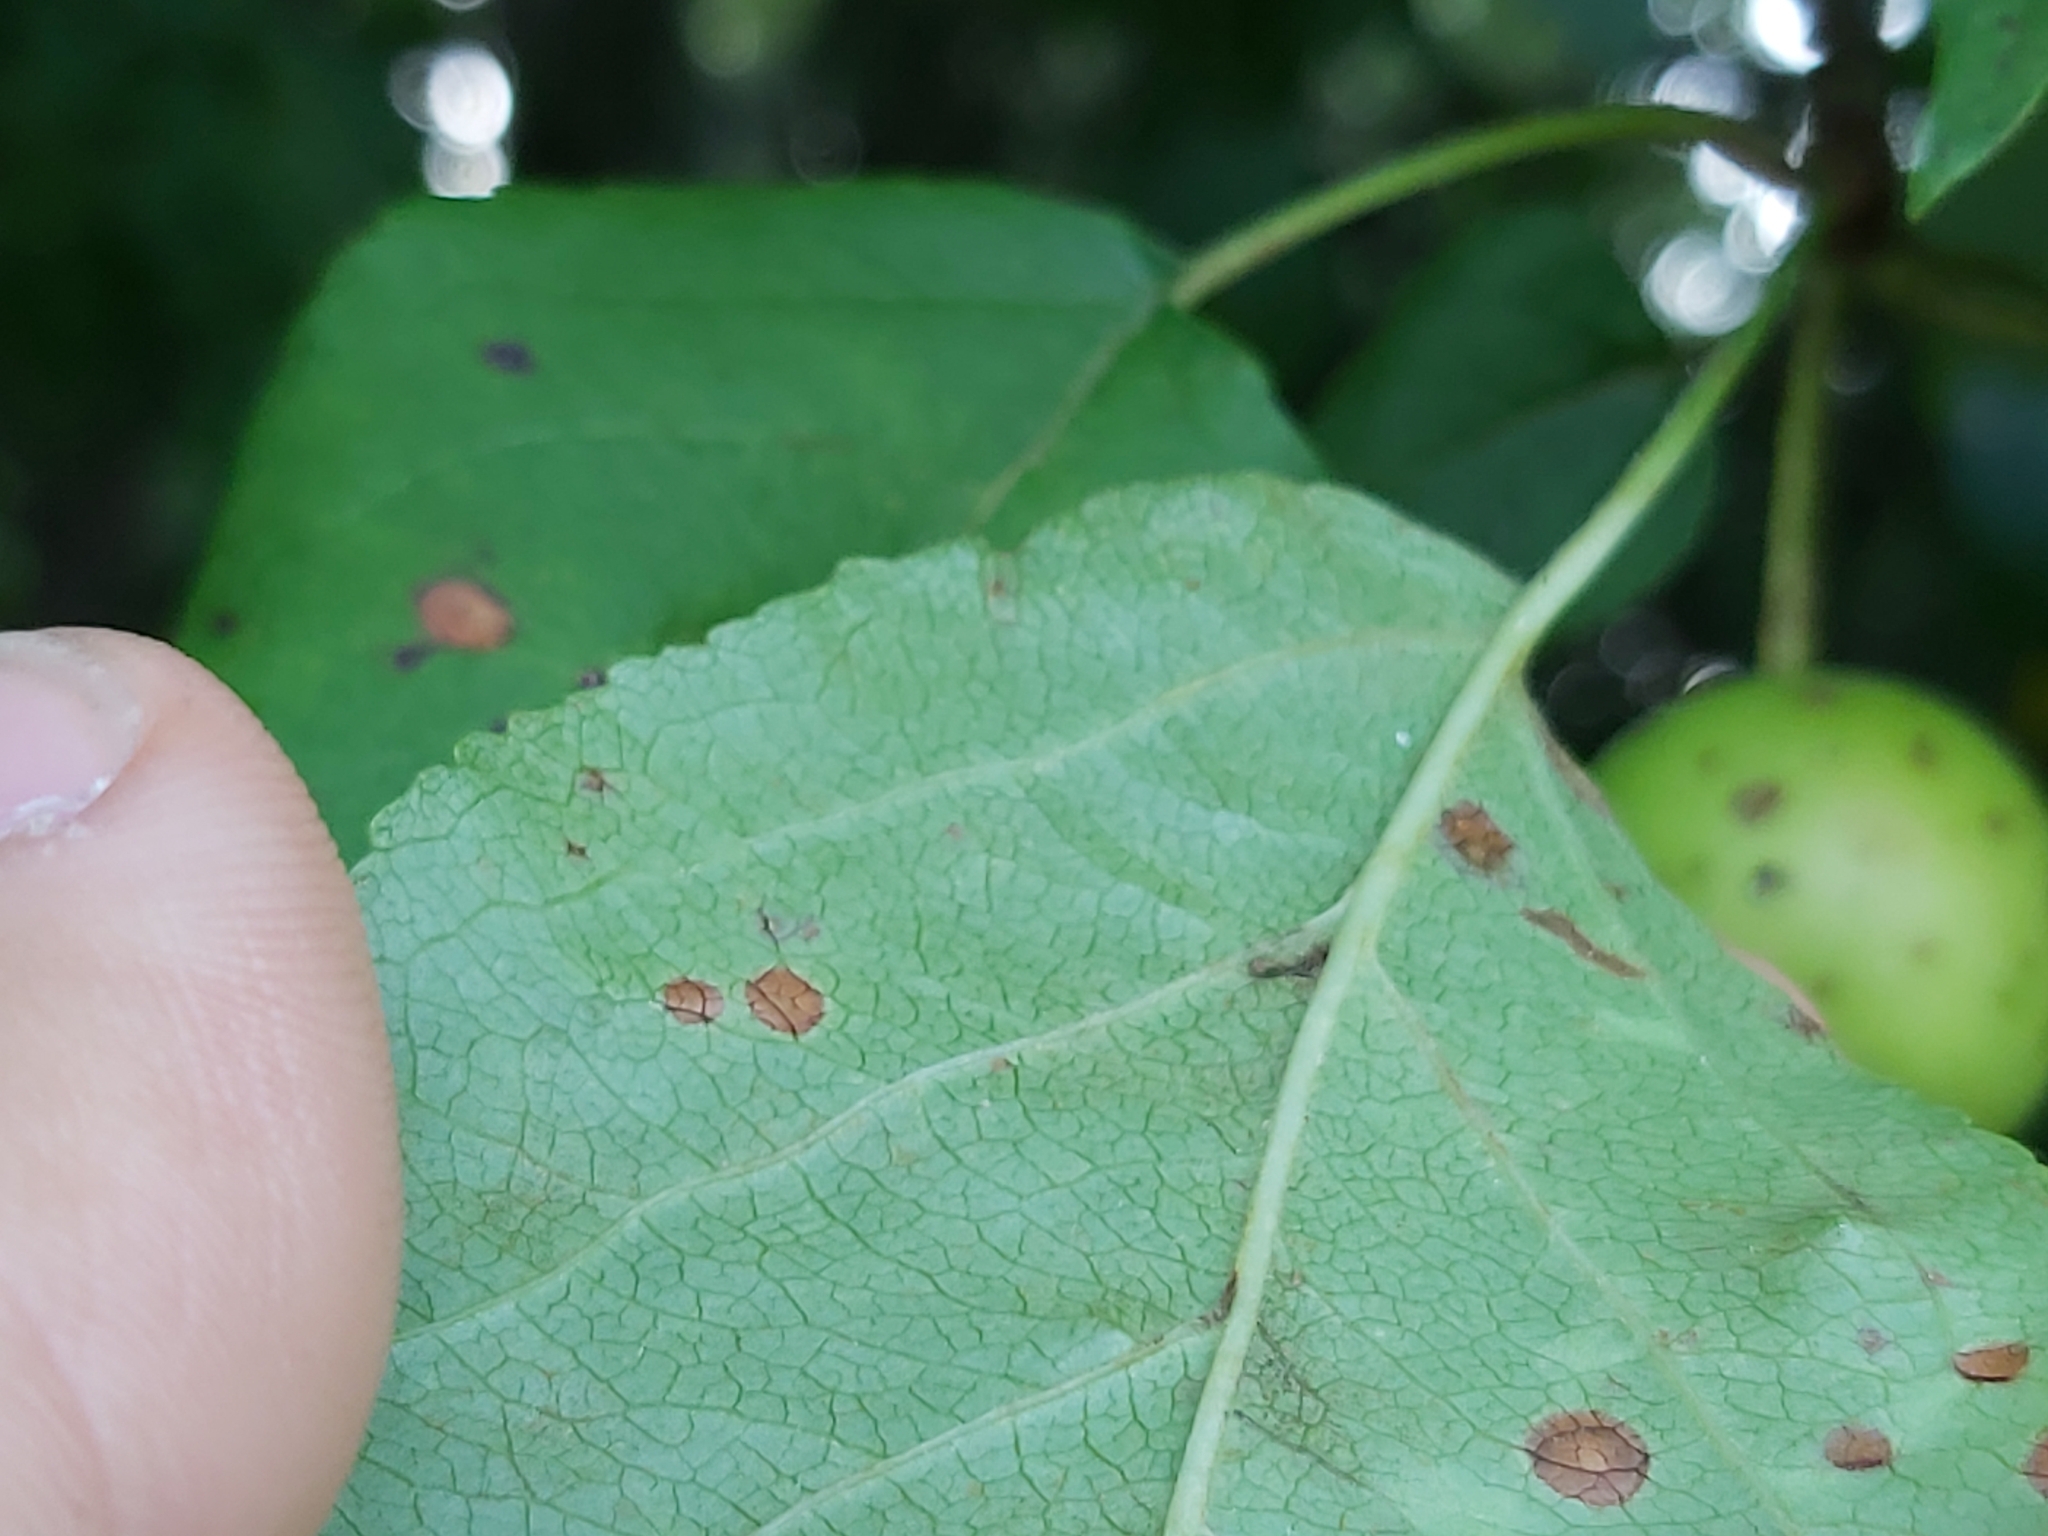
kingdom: Plantae
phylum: Tracheophyta
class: Magnoliopsida
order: Rosales
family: Rosaceae
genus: Malus
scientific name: Malus sylvestris
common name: Crab apple
